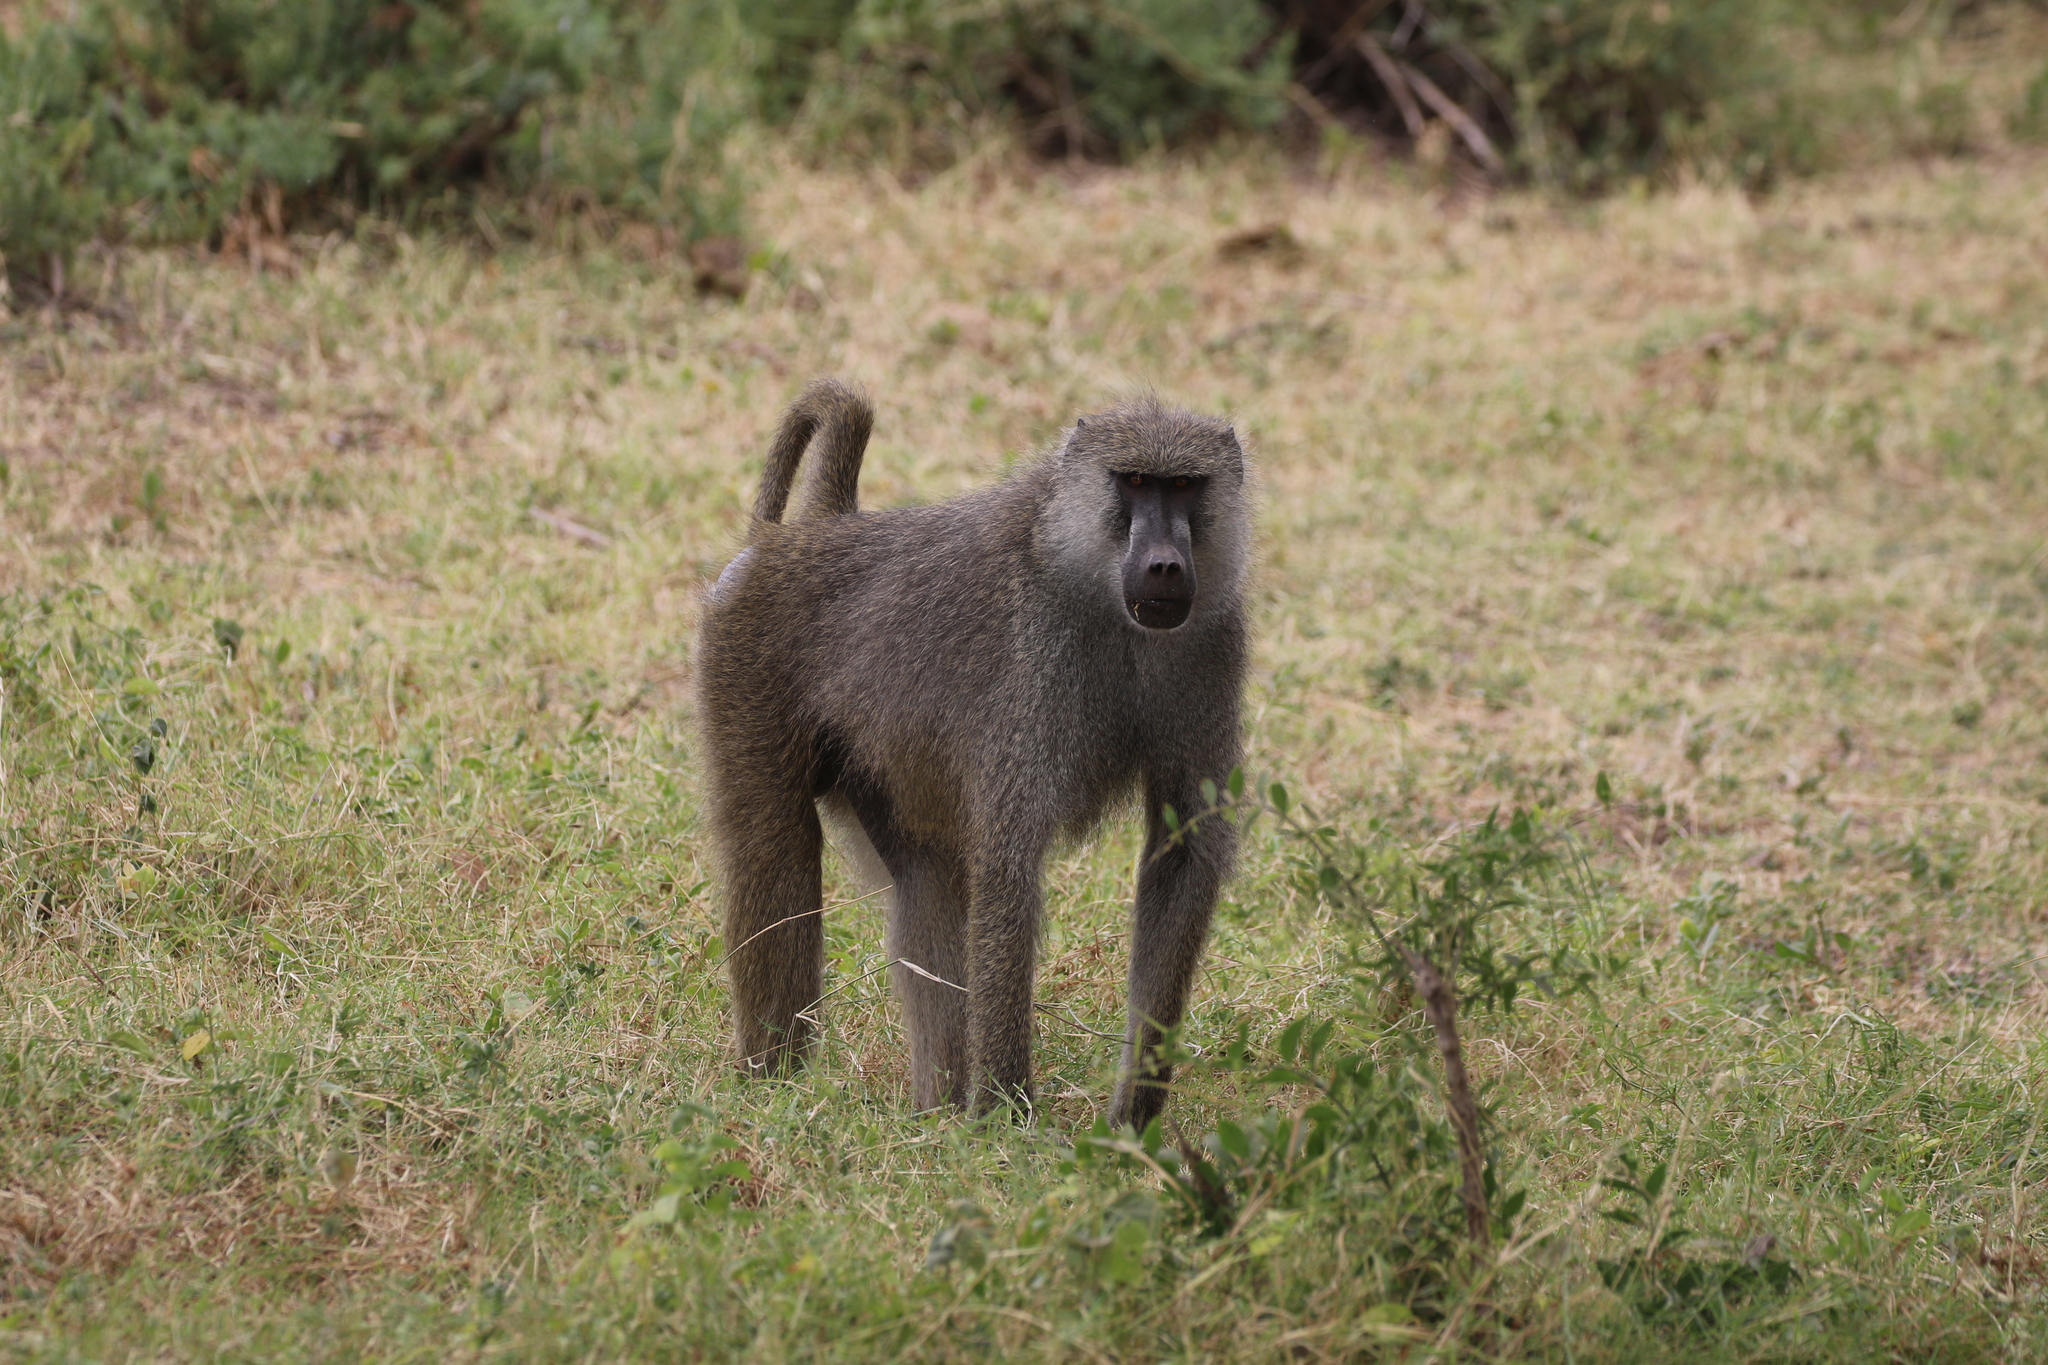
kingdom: Animalia
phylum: Chordata
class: Mammalia
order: Primates
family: Cercopithecidae
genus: Papio
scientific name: Papio cynocephalus
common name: Yellow baboon
